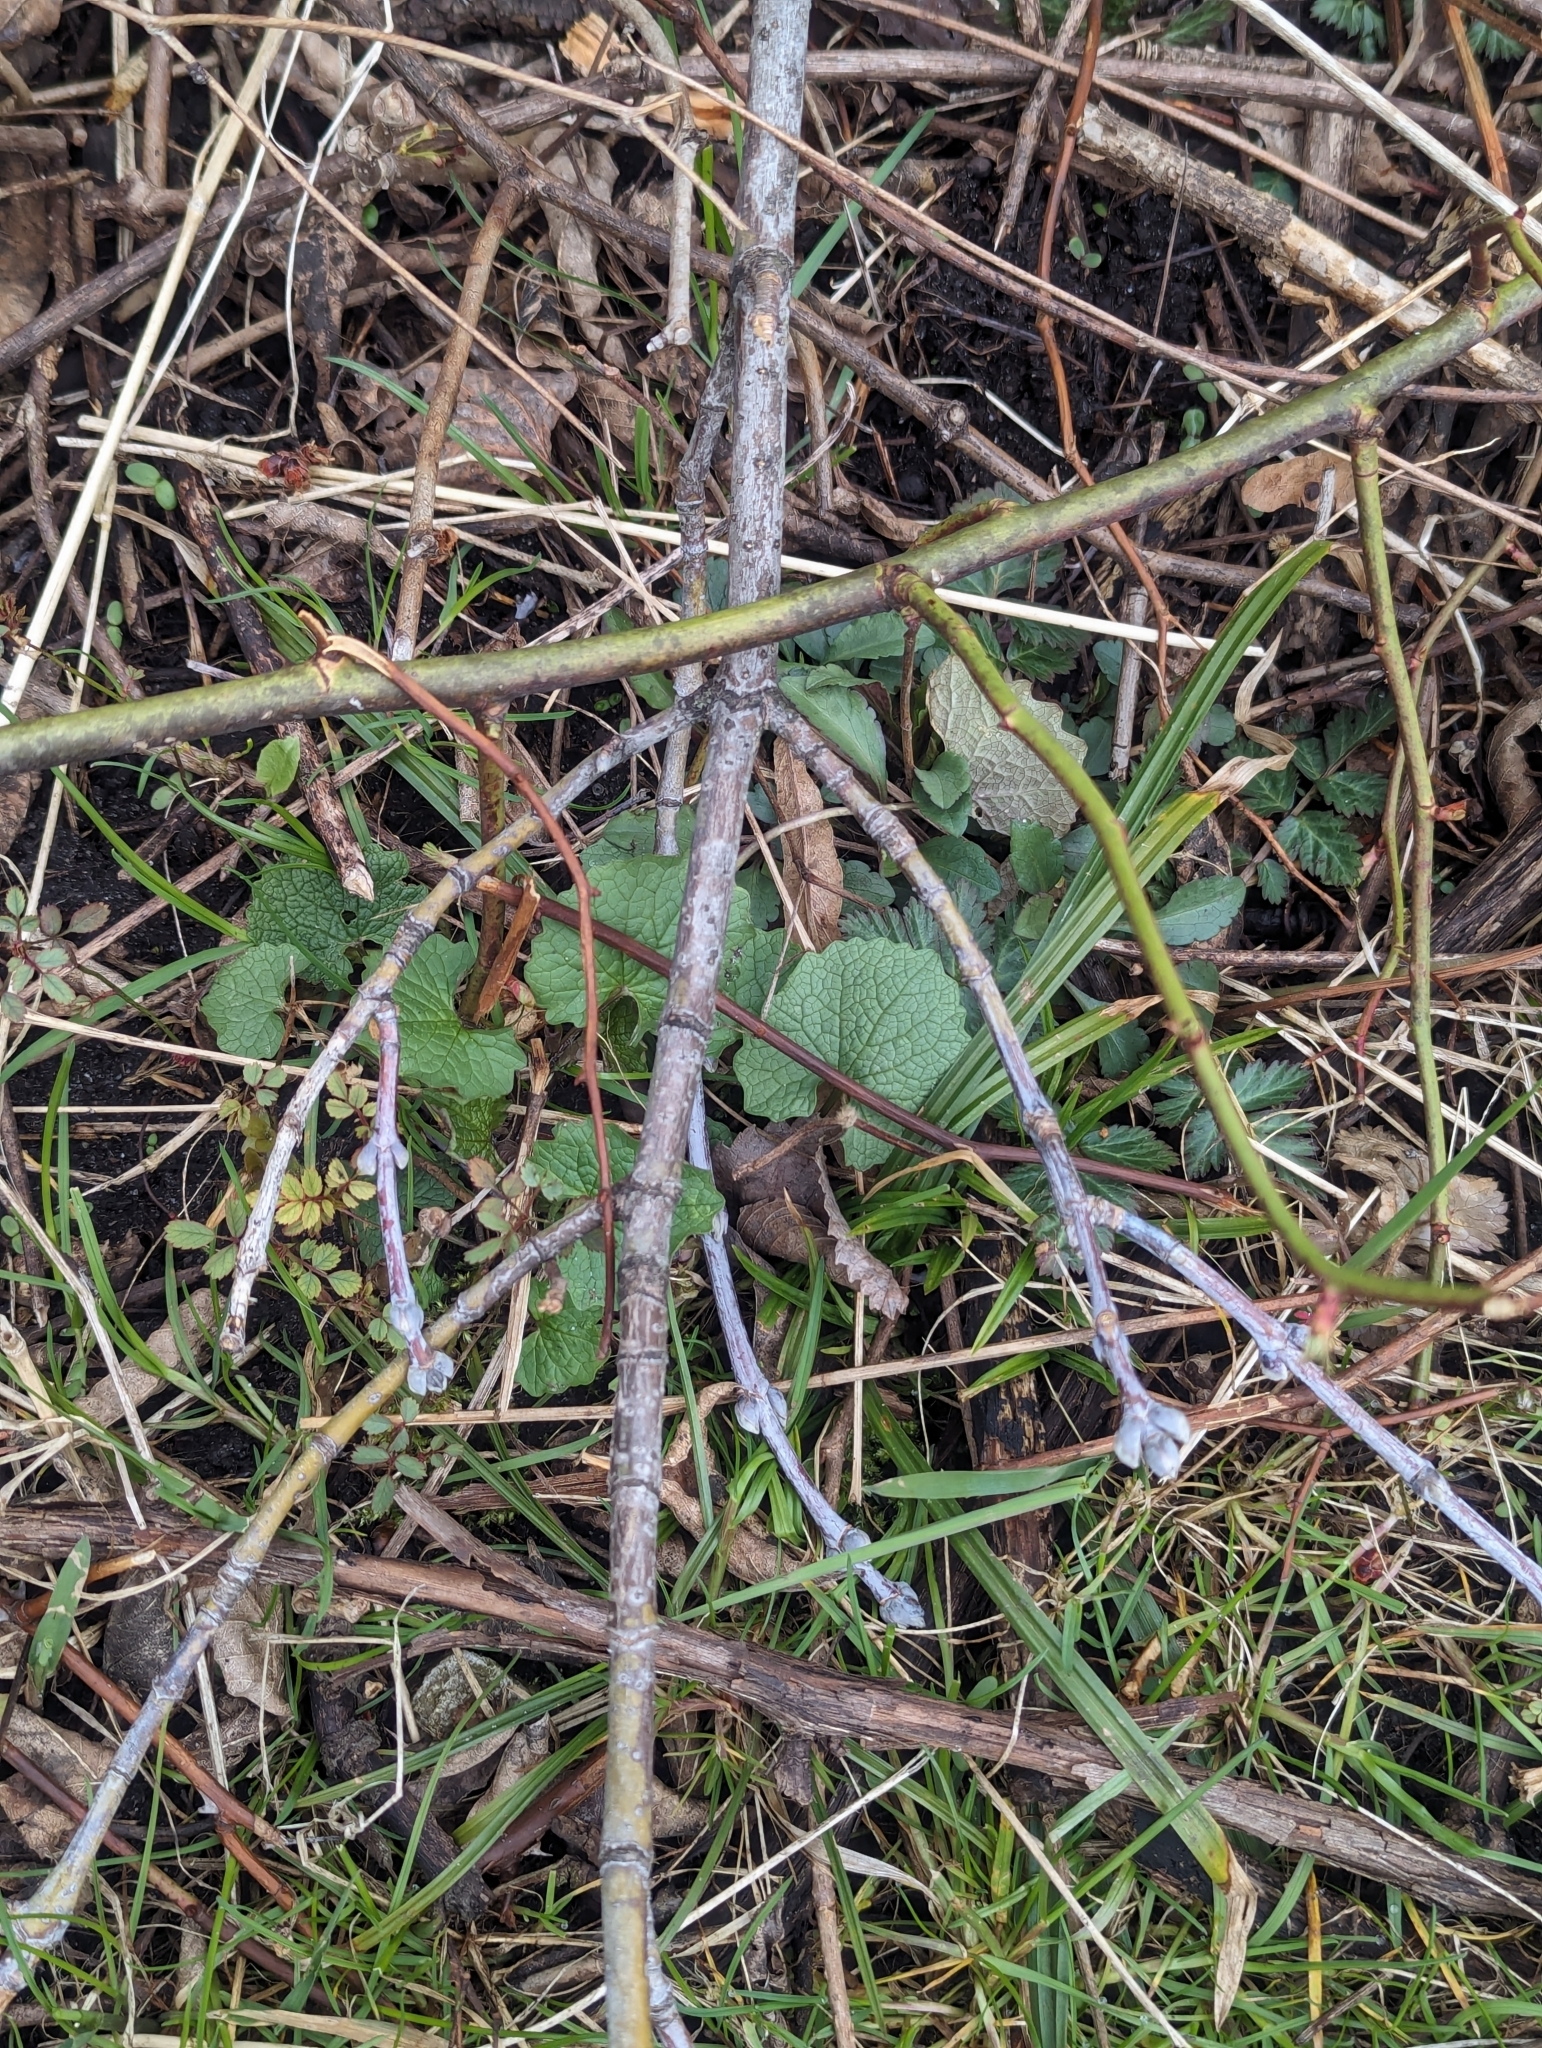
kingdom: Plantae
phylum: Tracheophyta
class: Magnoliopsida
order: Brassicales
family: Brassicaceae
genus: Alliaria
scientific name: Alliaria petiolata
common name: Garlic mustard
